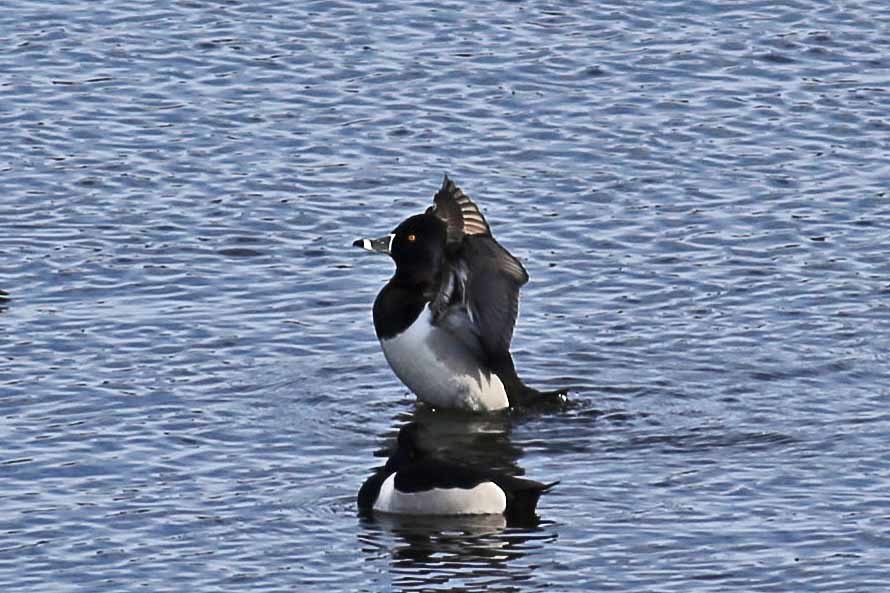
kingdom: Animalia
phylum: Chordata
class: Aves
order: Anseriformes
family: Anatidae
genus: Aythya
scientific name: Aythya collaris
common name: Ring-necked duck
